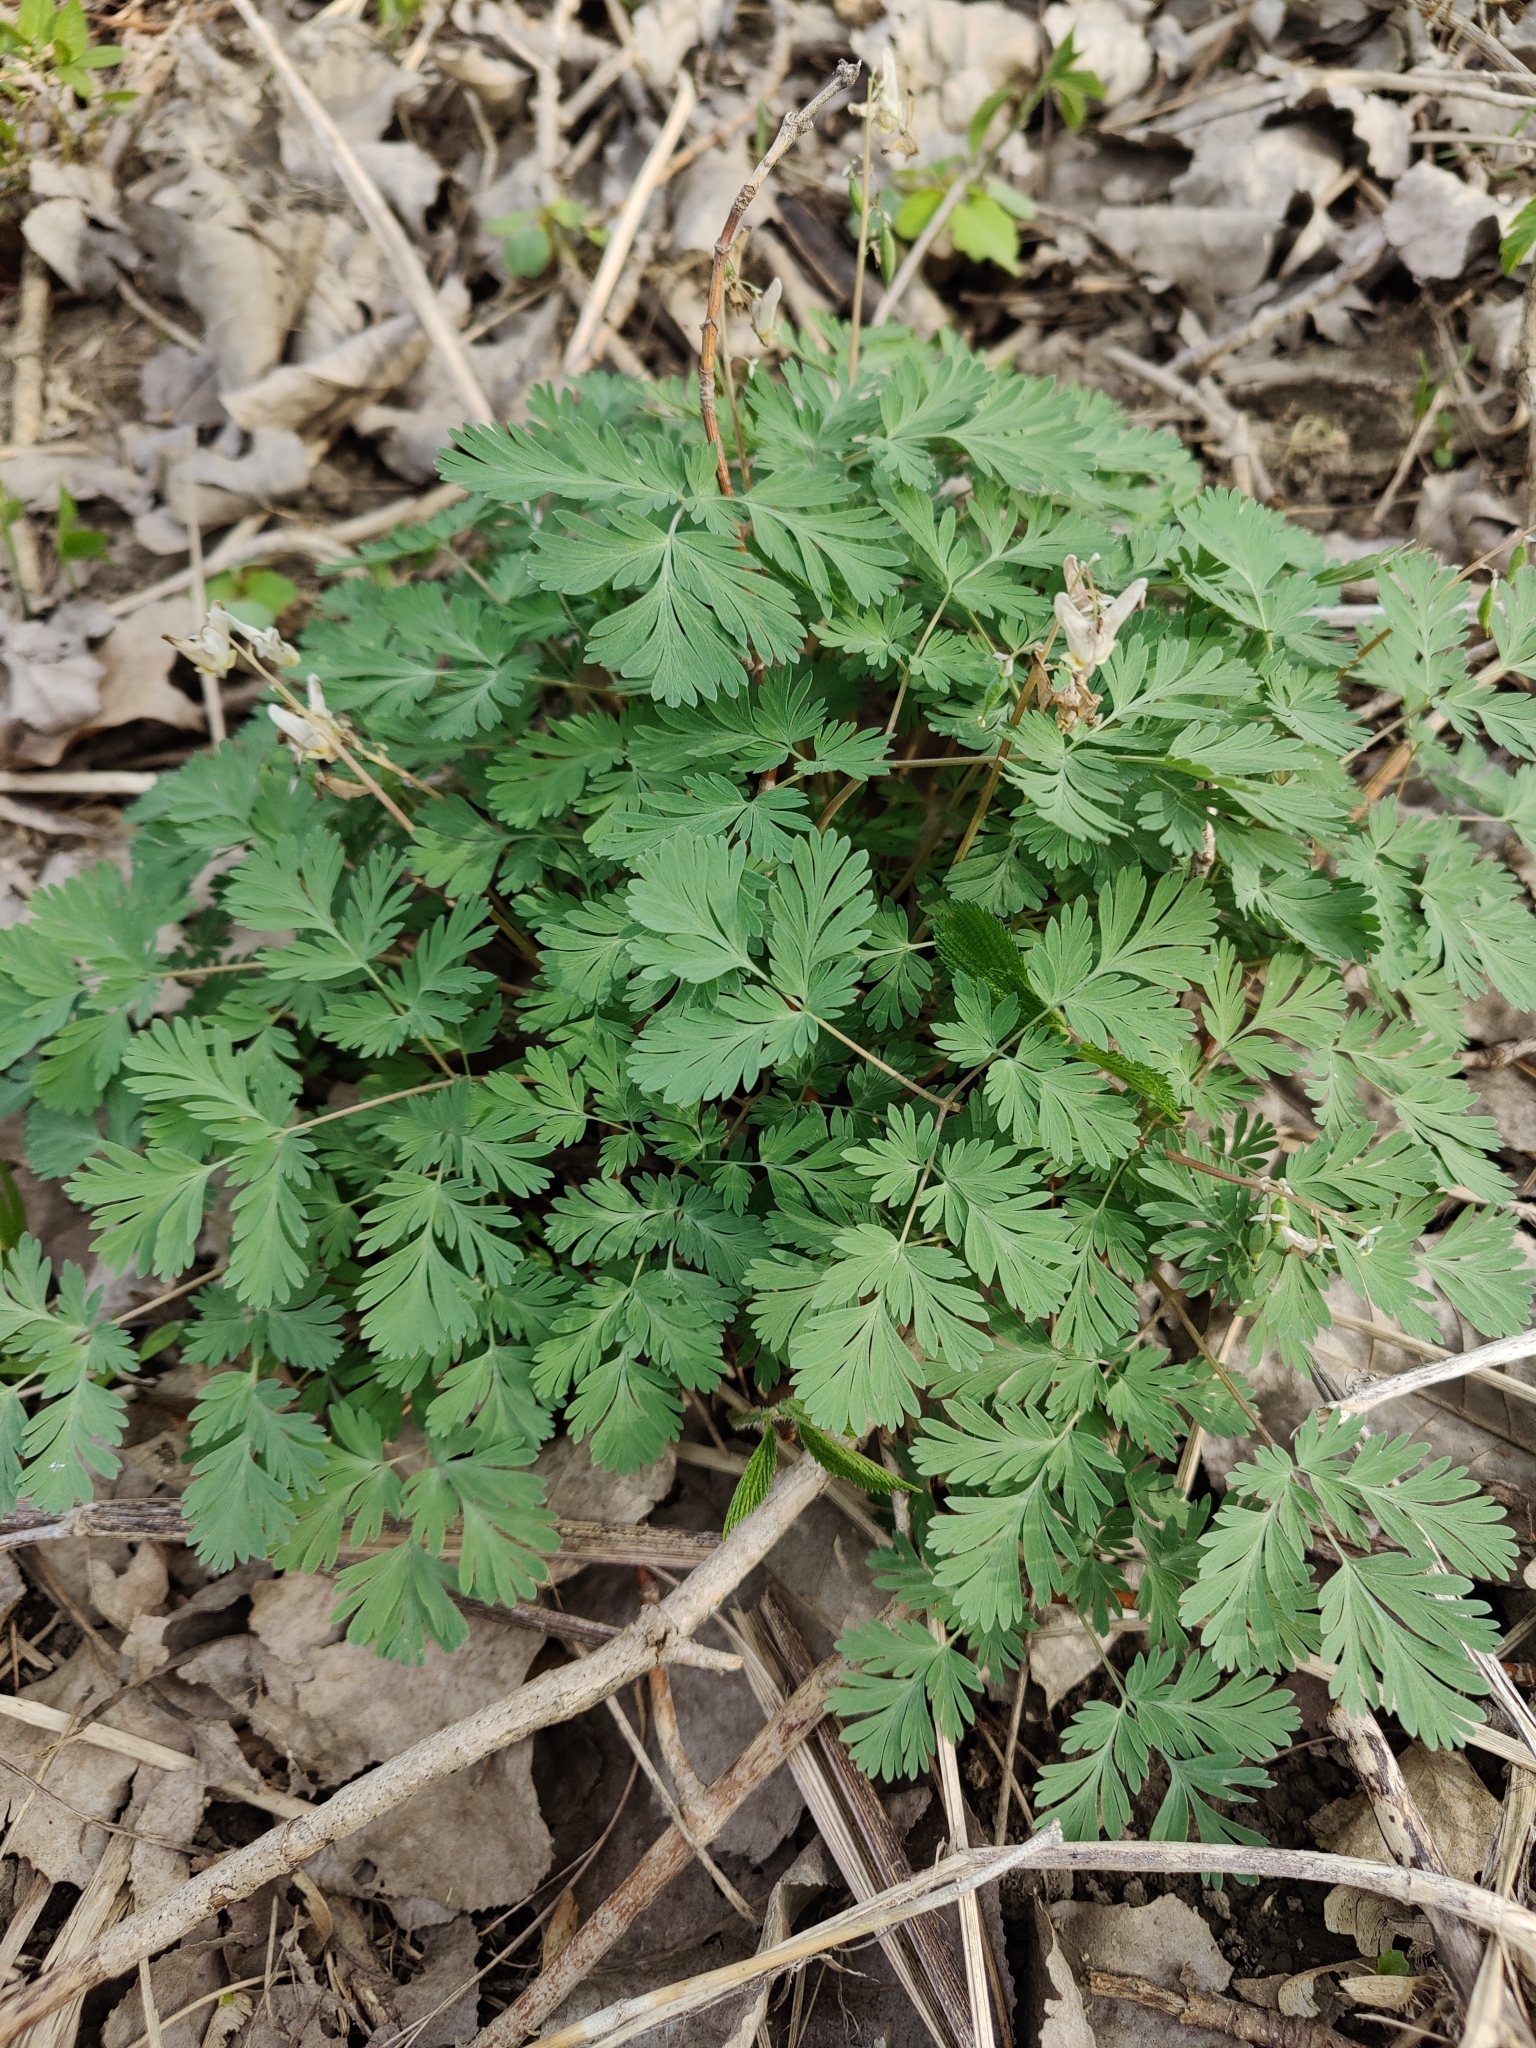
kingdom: Plantae
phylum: Tracheophyta
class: Magnoliopsida
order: Ranunculales
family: Papaveraceae
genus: Dicentra
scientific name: Dicentra cucullaria
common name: Dutchman's breeches
